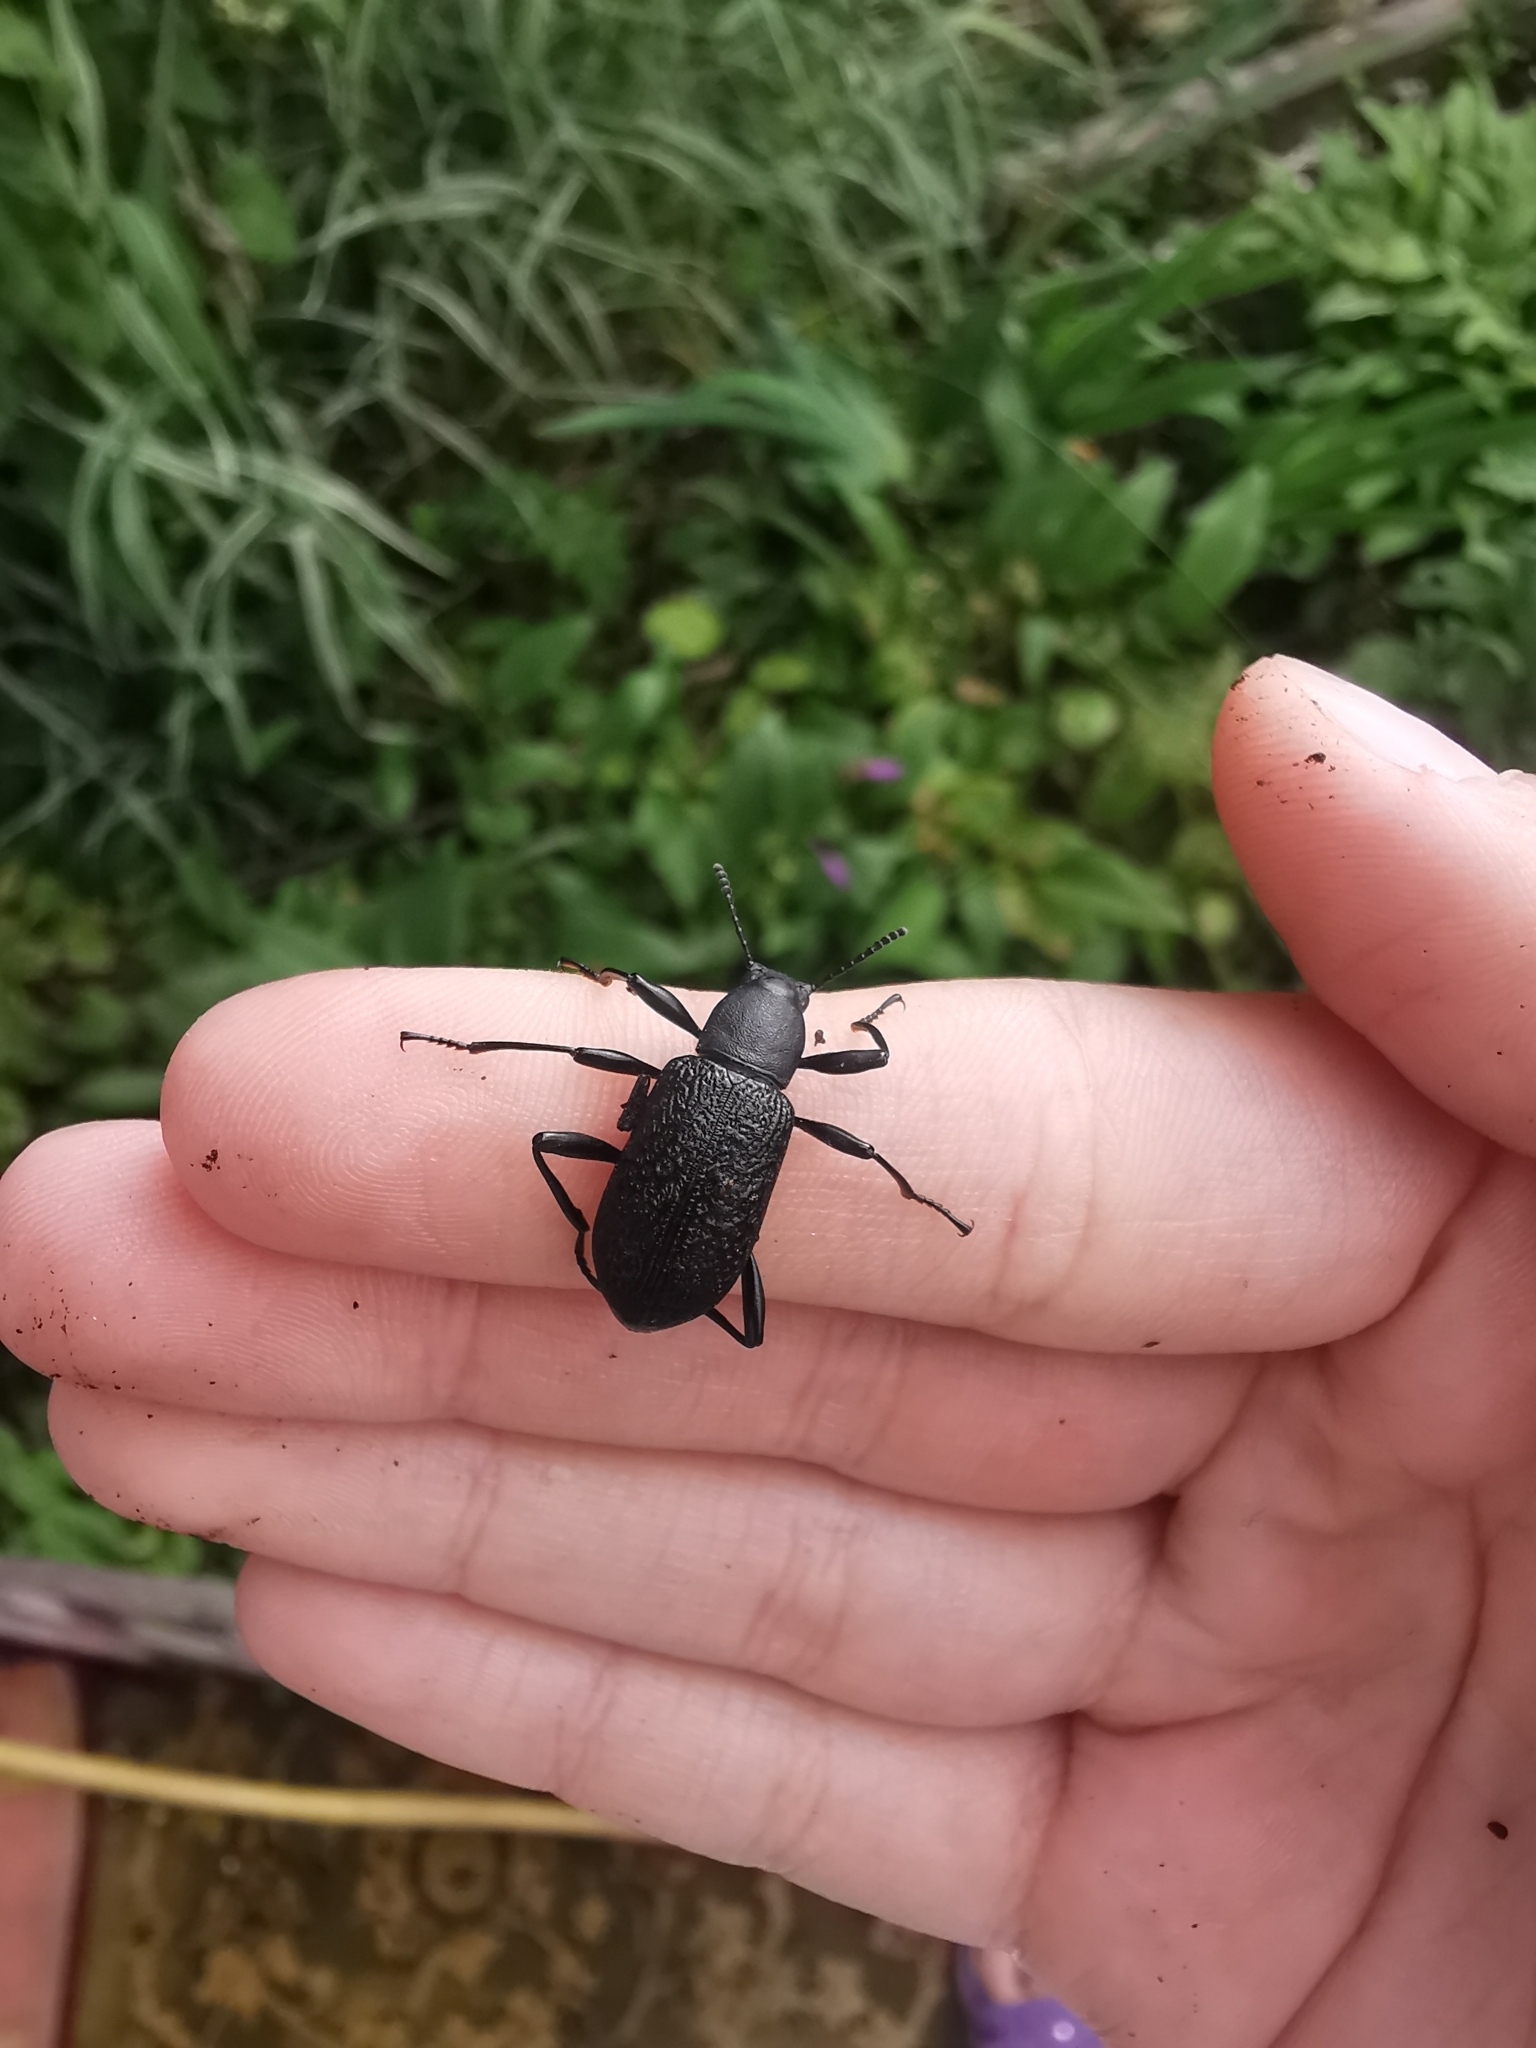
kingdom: Animalia
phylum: Arthropoda
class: Insecta
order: Coleoptera
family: Tenebrionidae
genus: Upis
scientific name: Upis ceramboides
